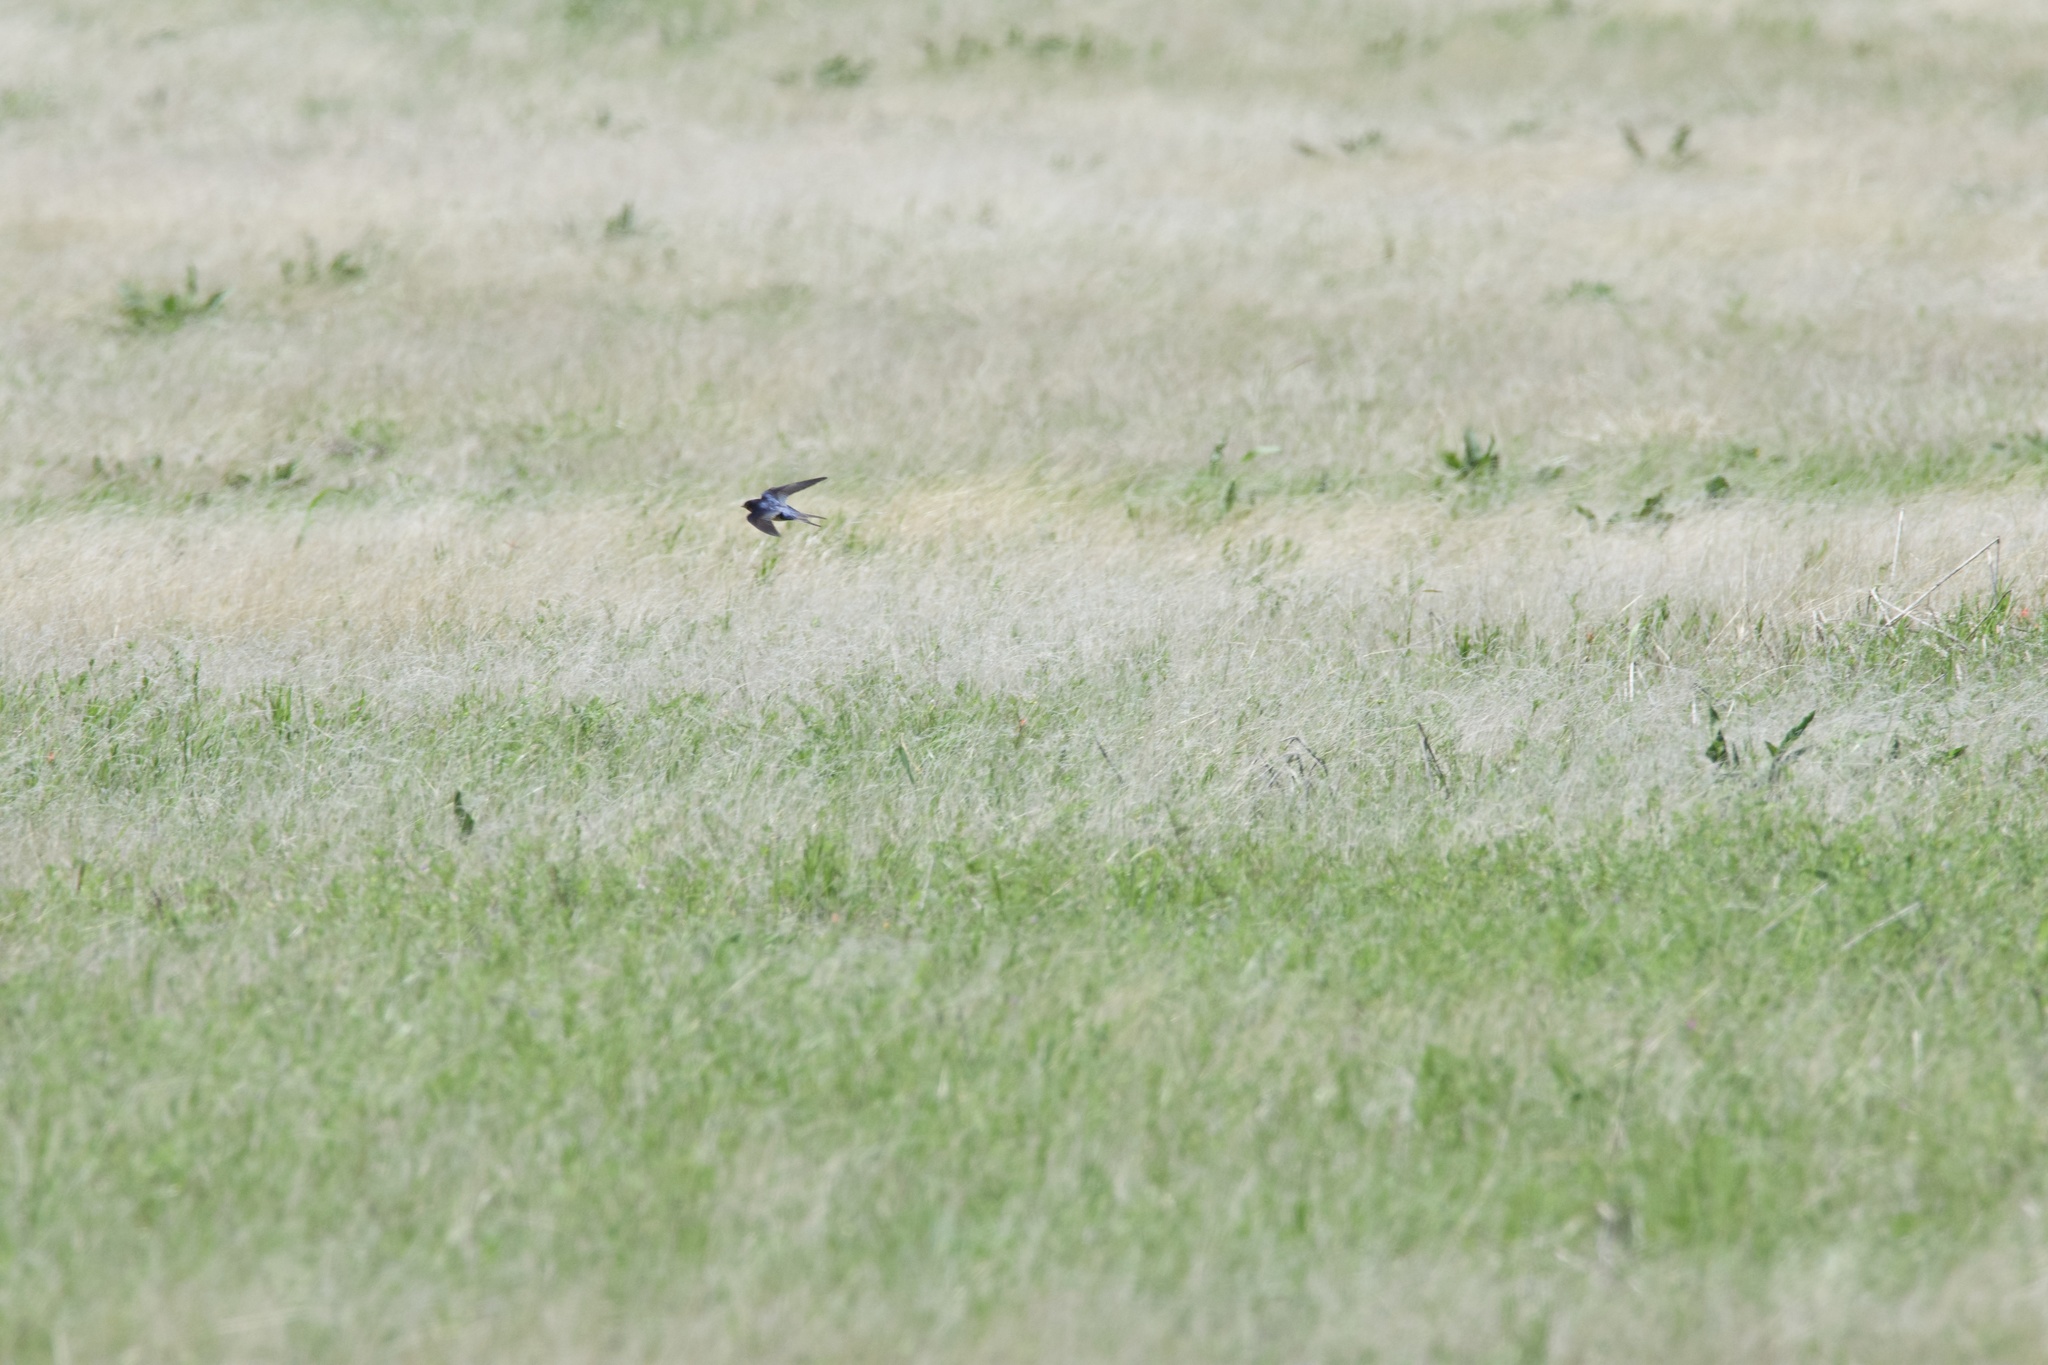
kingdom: Animalia
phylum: Chordata
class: Aves
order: Passeriformes
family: Hirundinidae
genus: Hirundo
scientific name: Hirundo rustica
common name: Barn swallow
